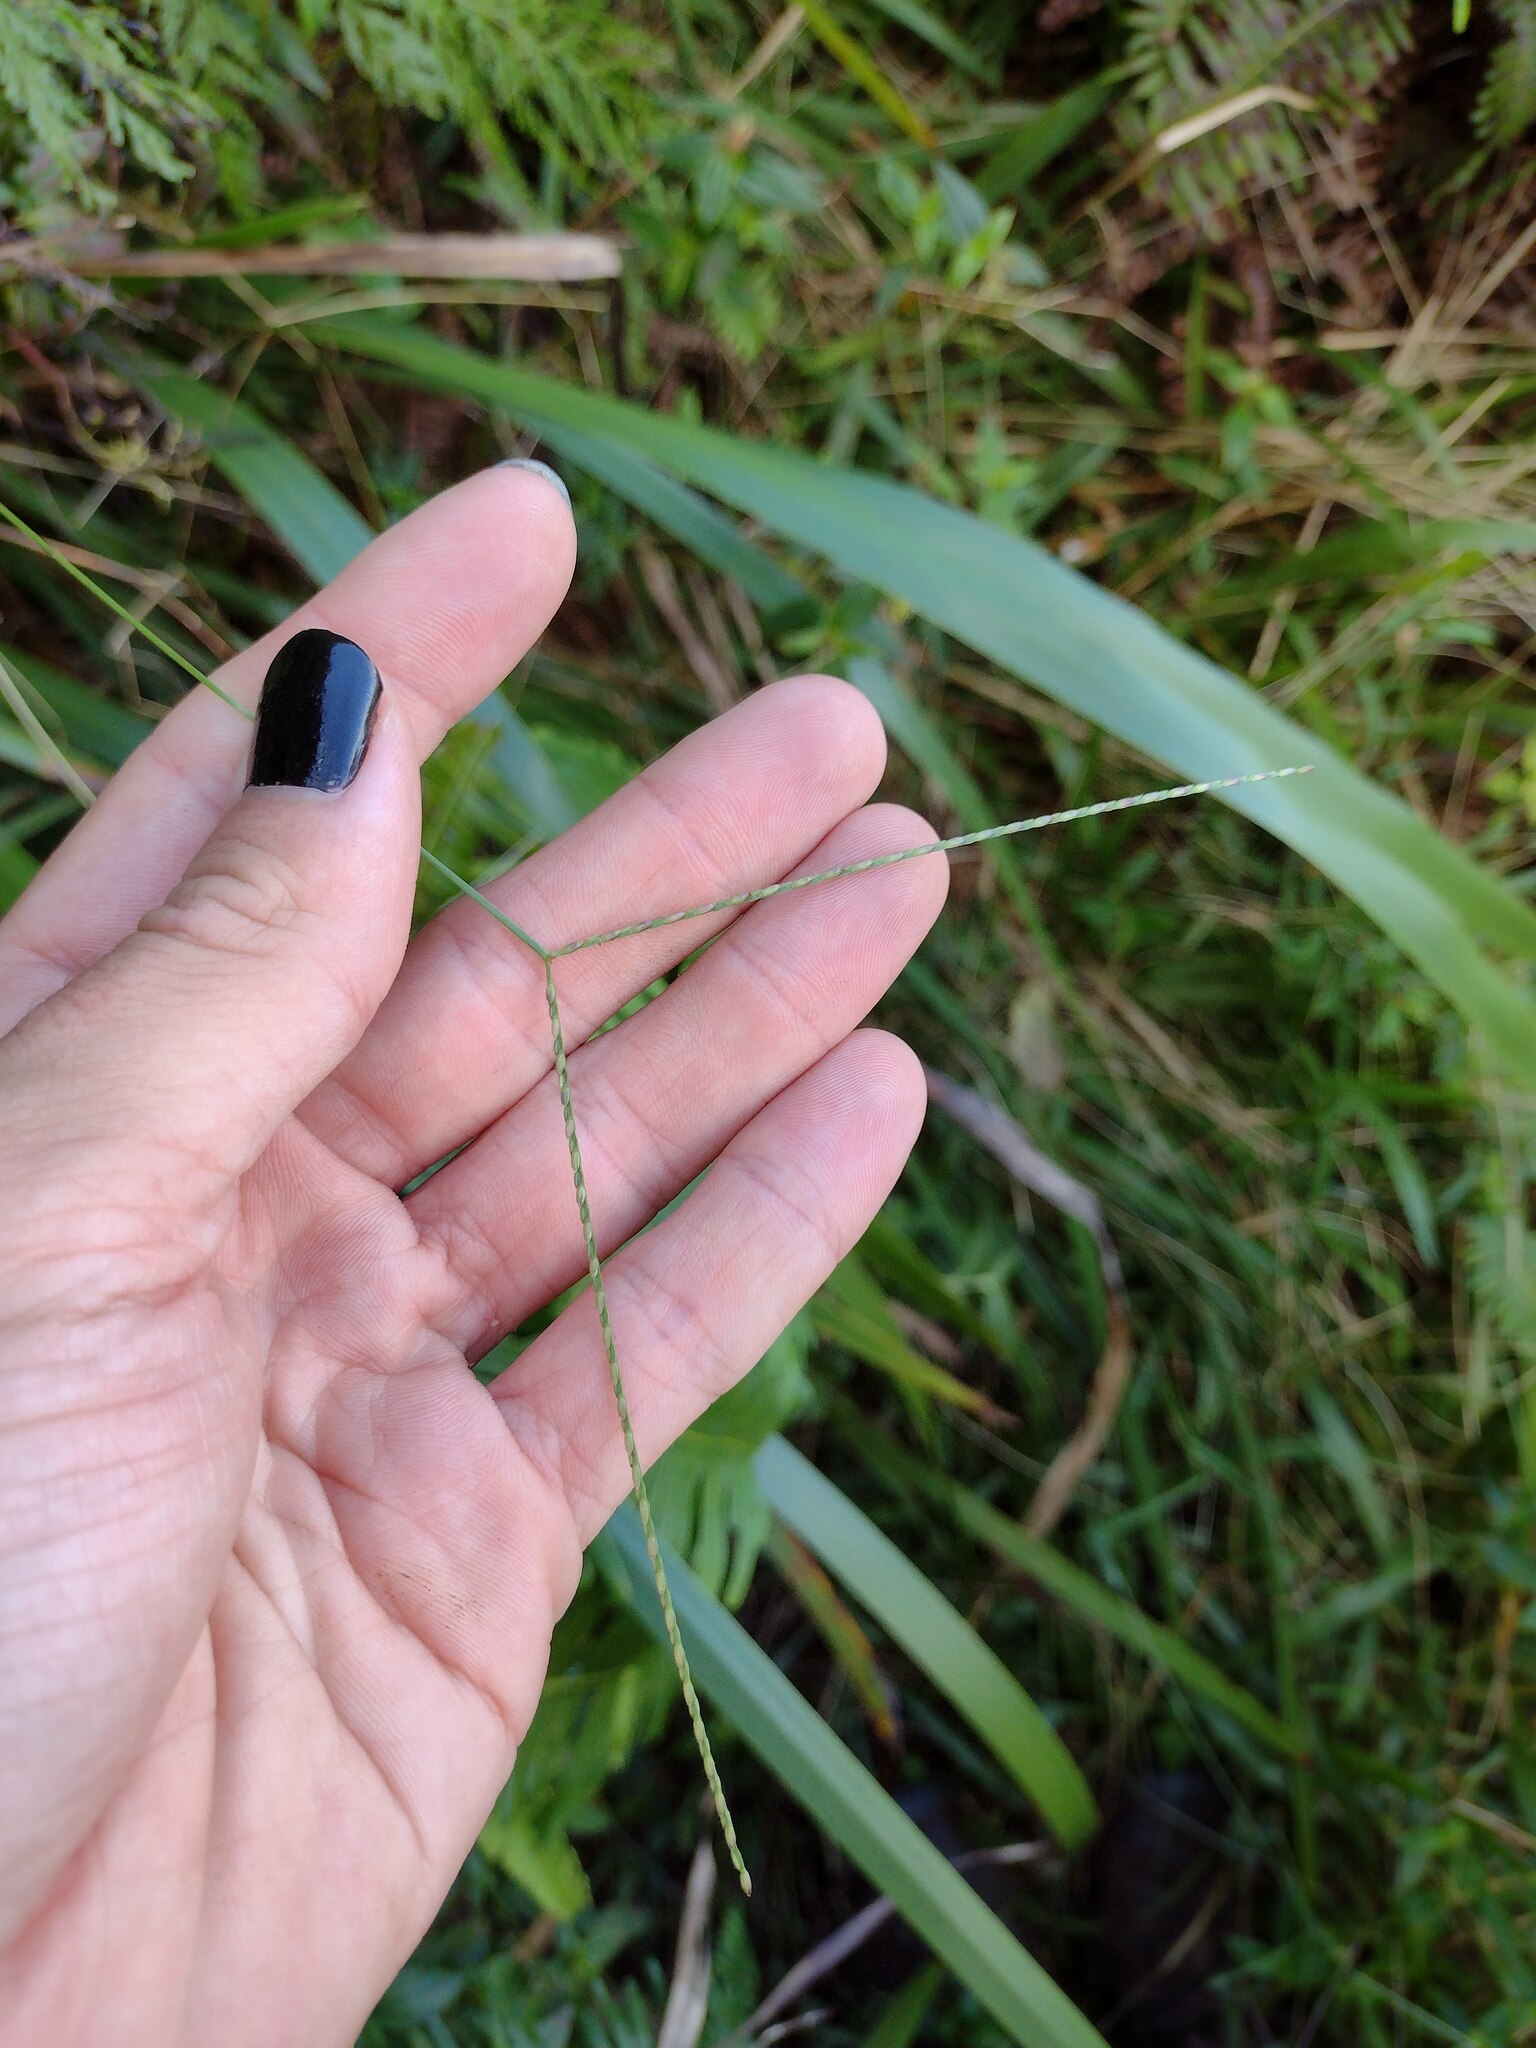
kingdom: Plantae
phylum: Tracheophyta
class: Liliopsida
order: Poales
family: Poaceae
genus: Axonopus
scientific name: Axonopus fissifolius
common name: Common carpetgrass
